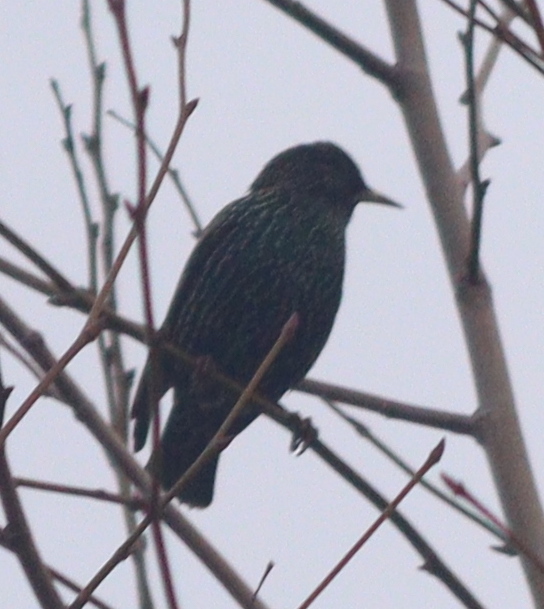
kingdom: Animalia
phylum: Chordata
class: Aves
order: Passeriformes
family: Sturnidae
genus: Sturnus
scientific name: Sturnus vulgaris
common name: Common starling
